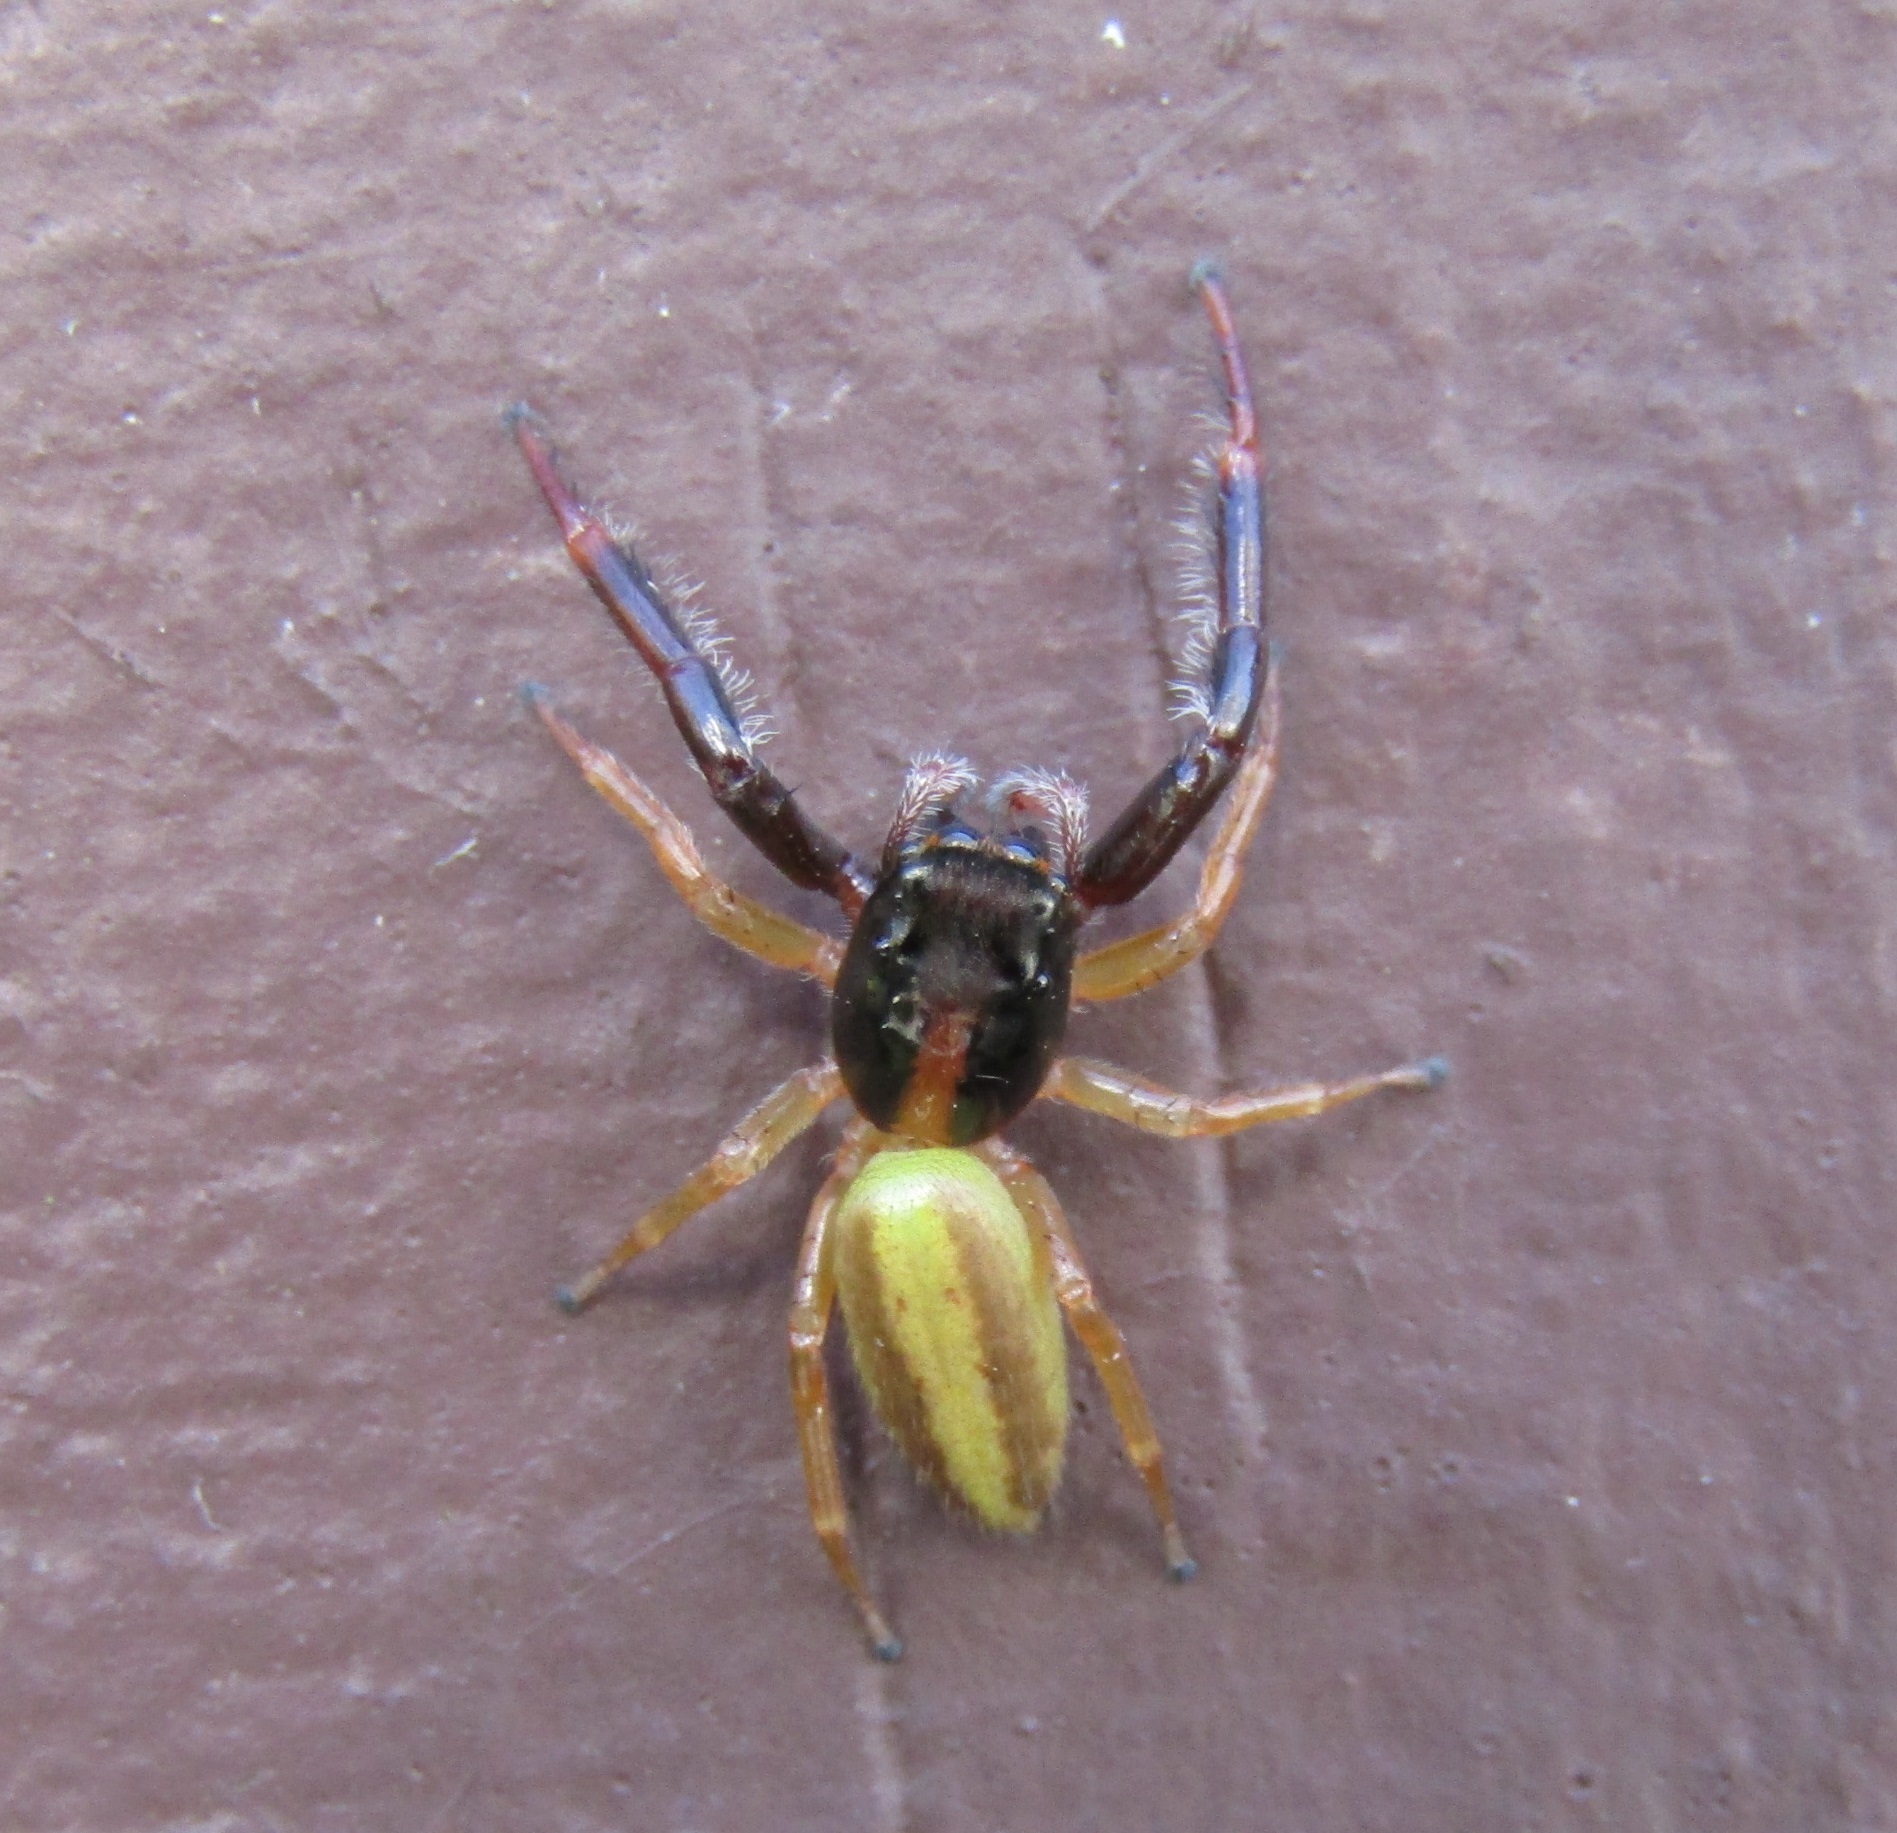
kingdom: Animalia
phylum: Arthropoda
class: Arachnida
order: Araneae
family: Salticidae
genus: Trite
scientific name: Trite planiceps
